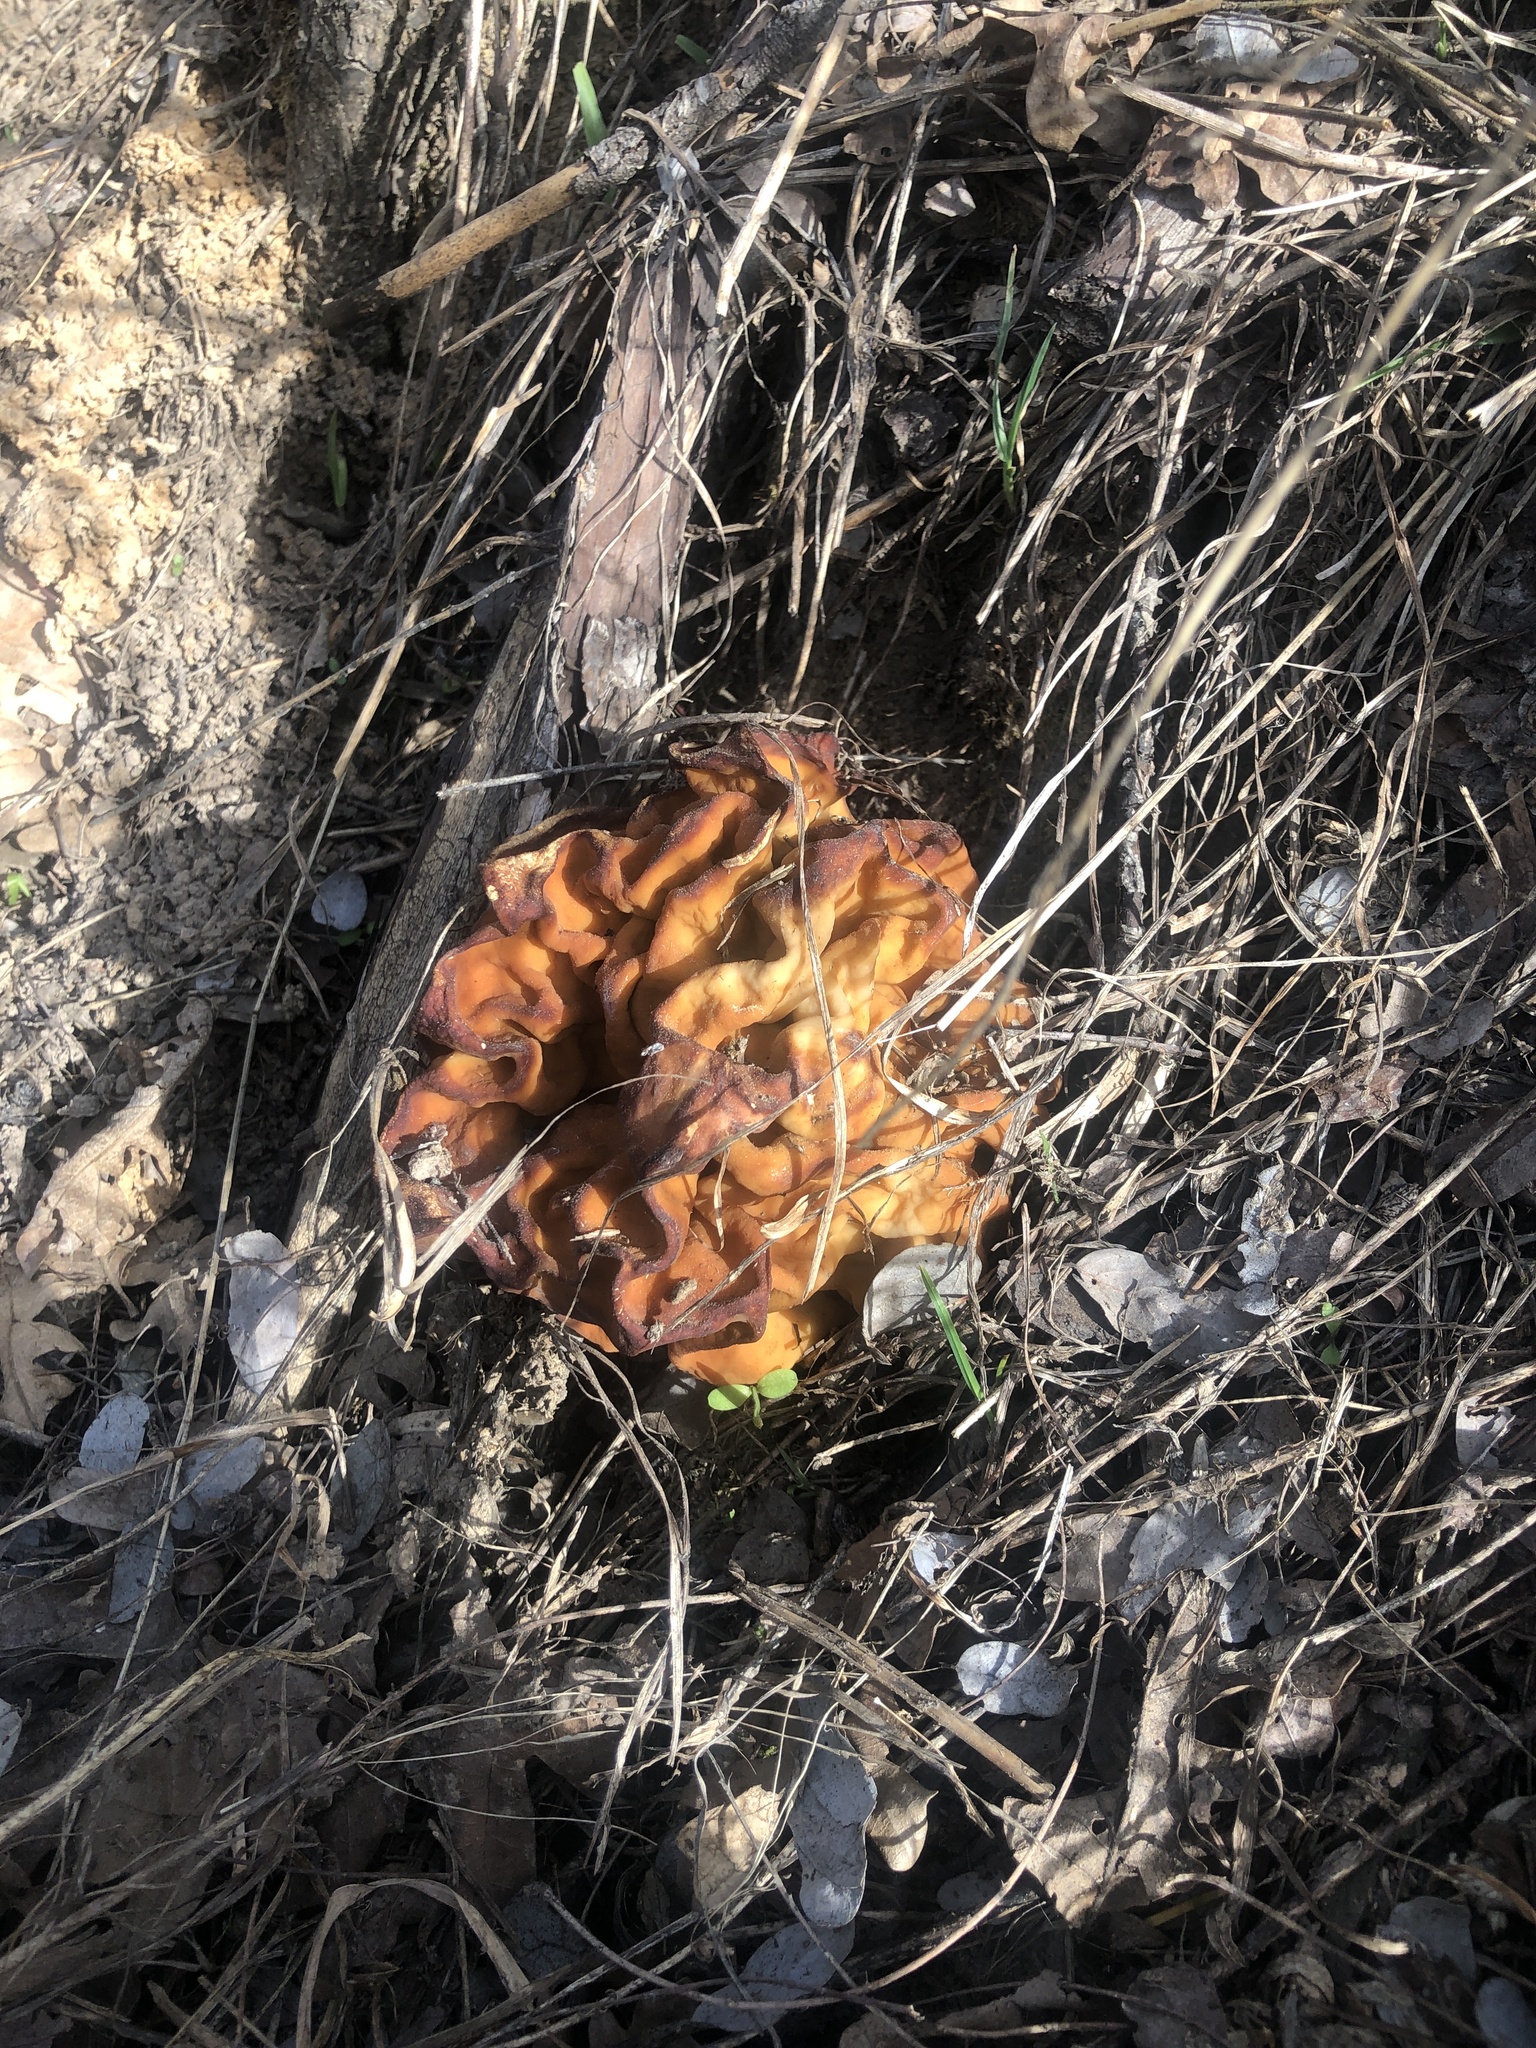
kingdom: Fungi
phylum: Ascomycota
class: Pezizomycetes
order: Pezizales
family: Discinaceae
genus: Discina
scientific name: Discina montana
